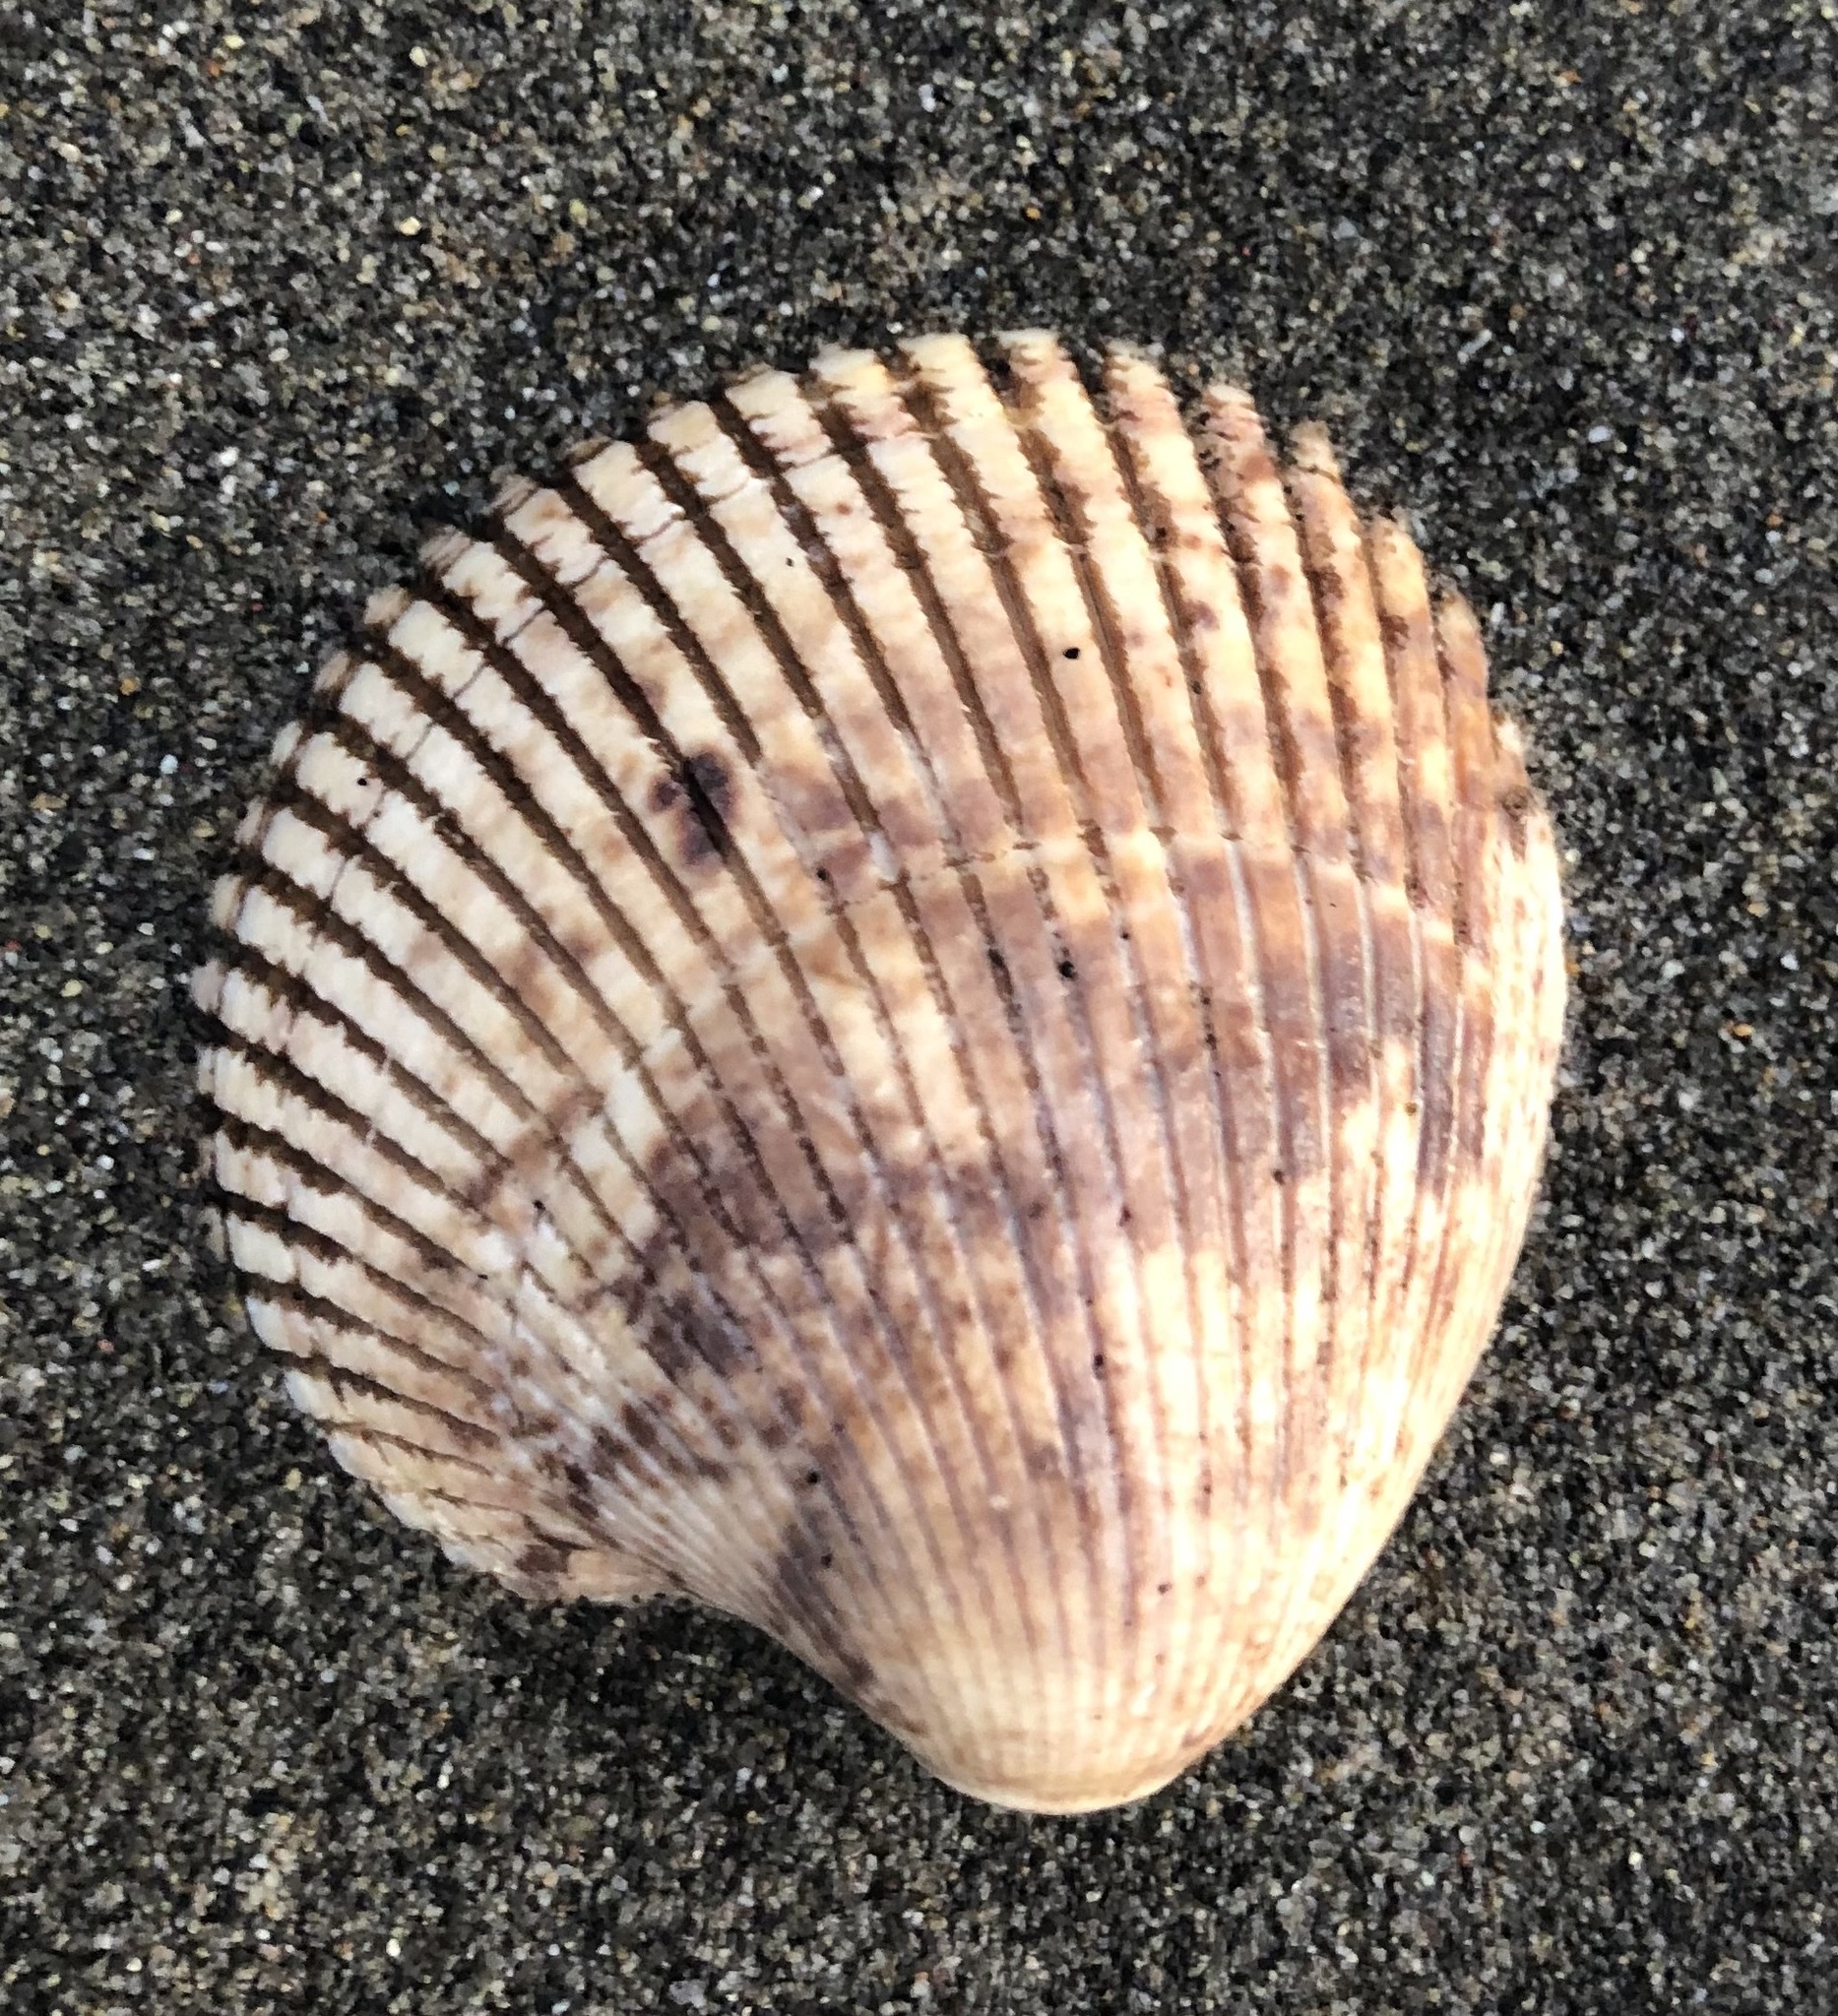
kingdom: Animalia
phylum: Mollusca
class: Bivalvia
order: Cardiida
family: Cardiidae
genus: Clinocardium
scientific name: Clinocardium nuttallii
